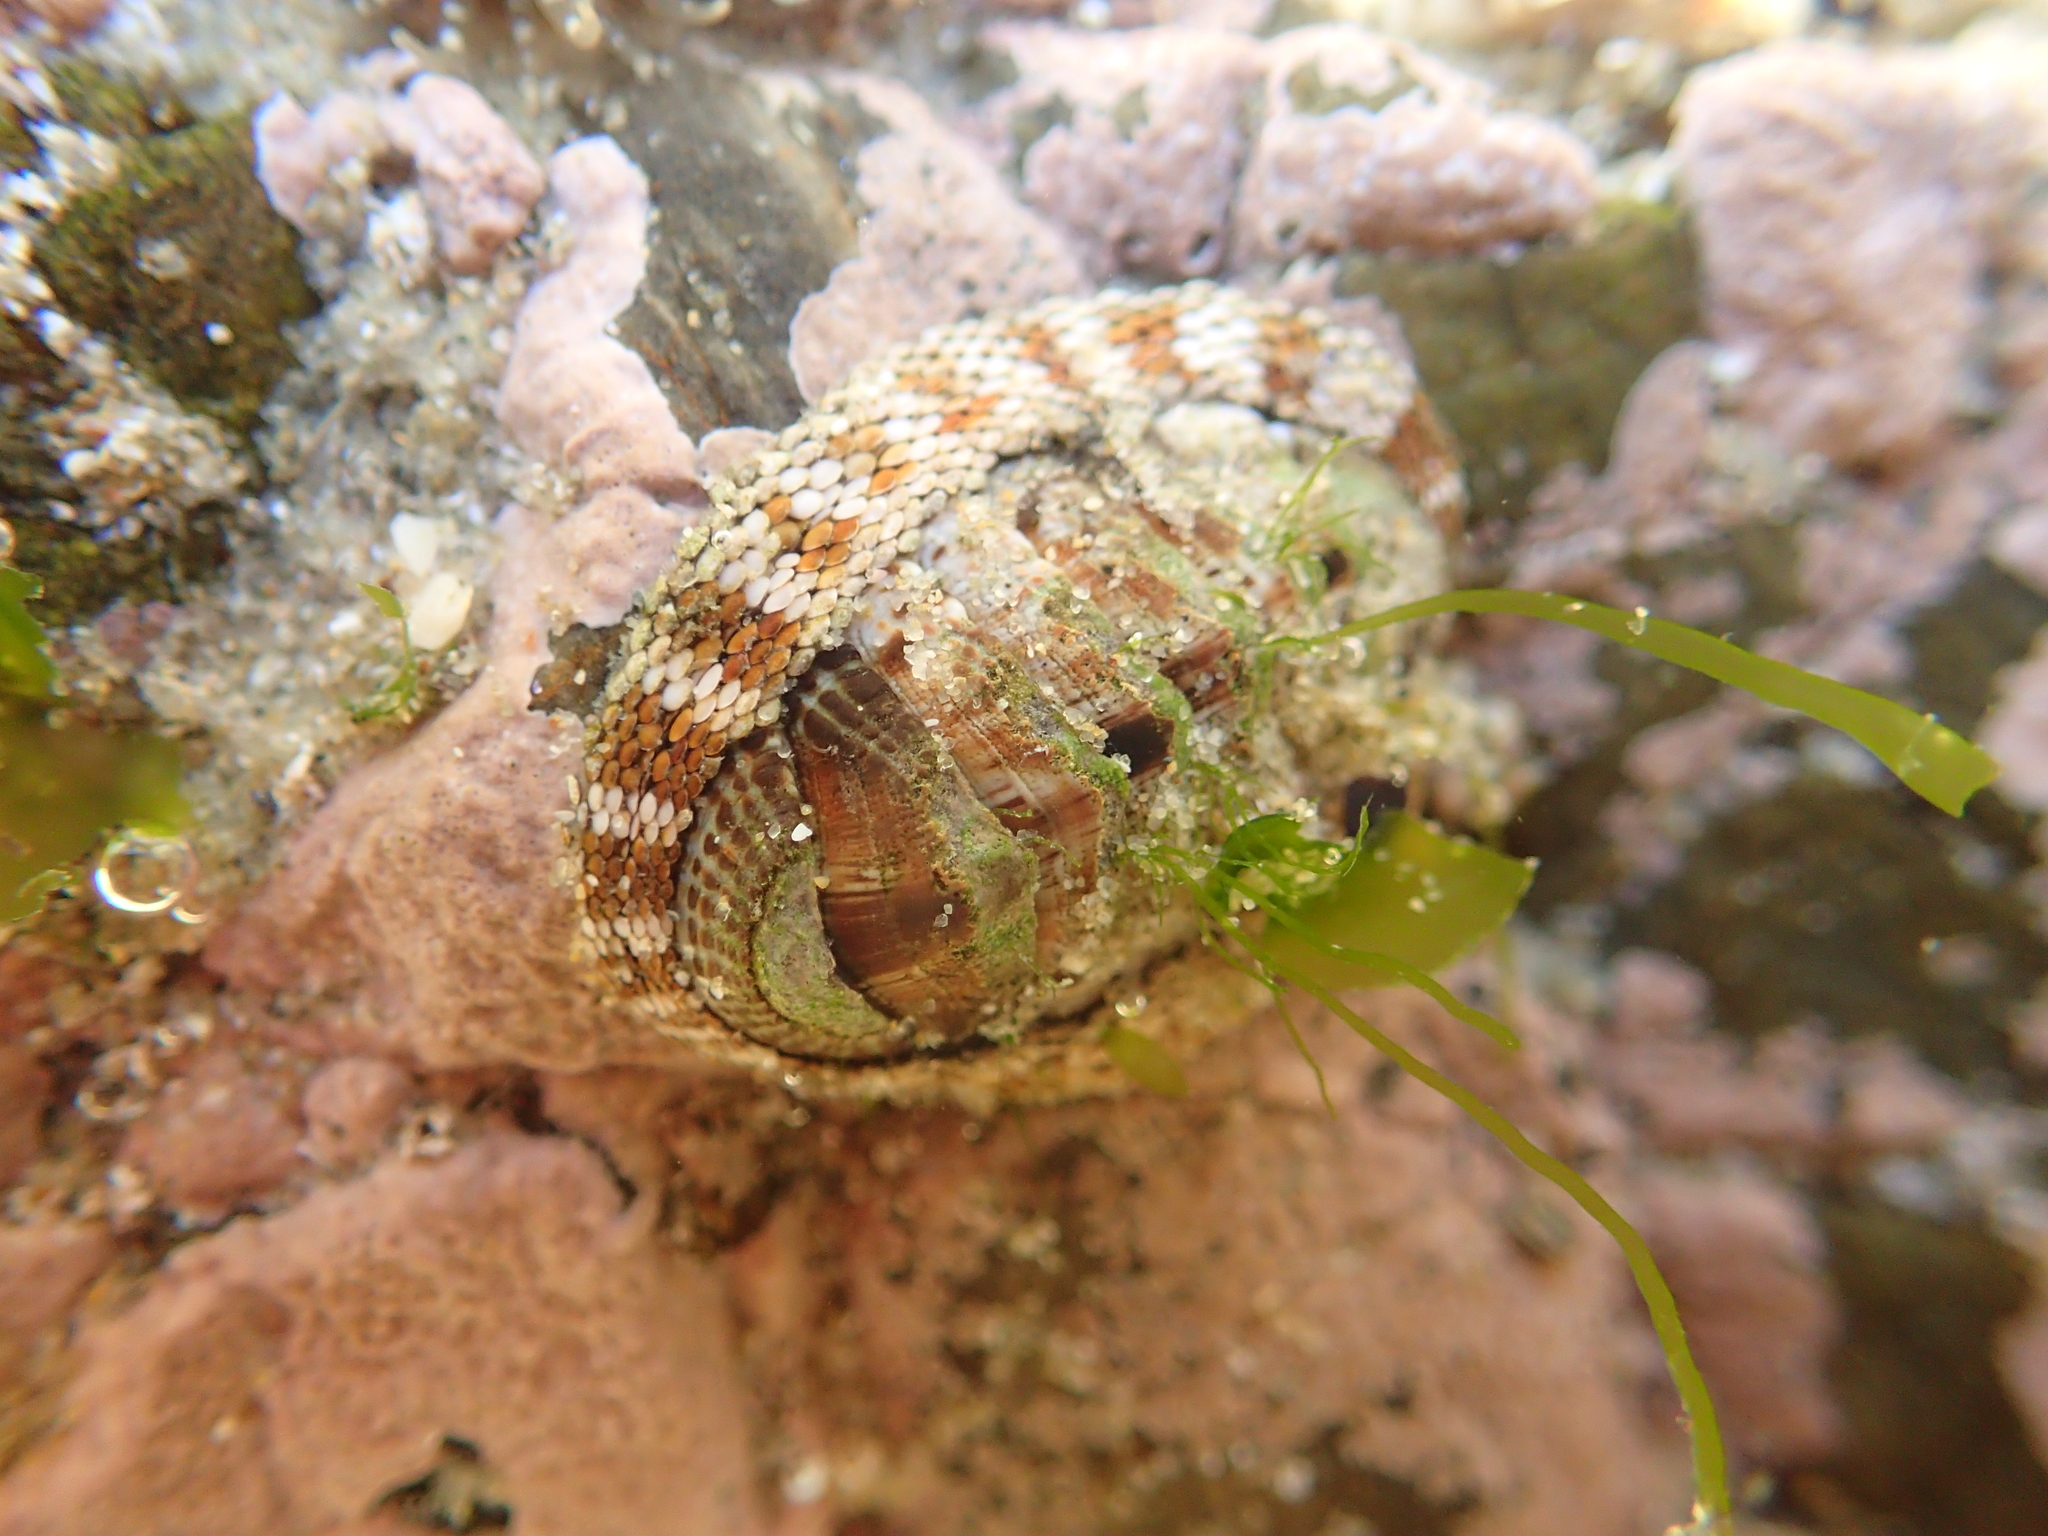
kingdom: Animalia
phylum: Mollusca
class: Polyplacophora
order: Chitonida
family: Chitonidae
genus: Sypharochiton
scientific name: Sypharochiton pelliserpentis
